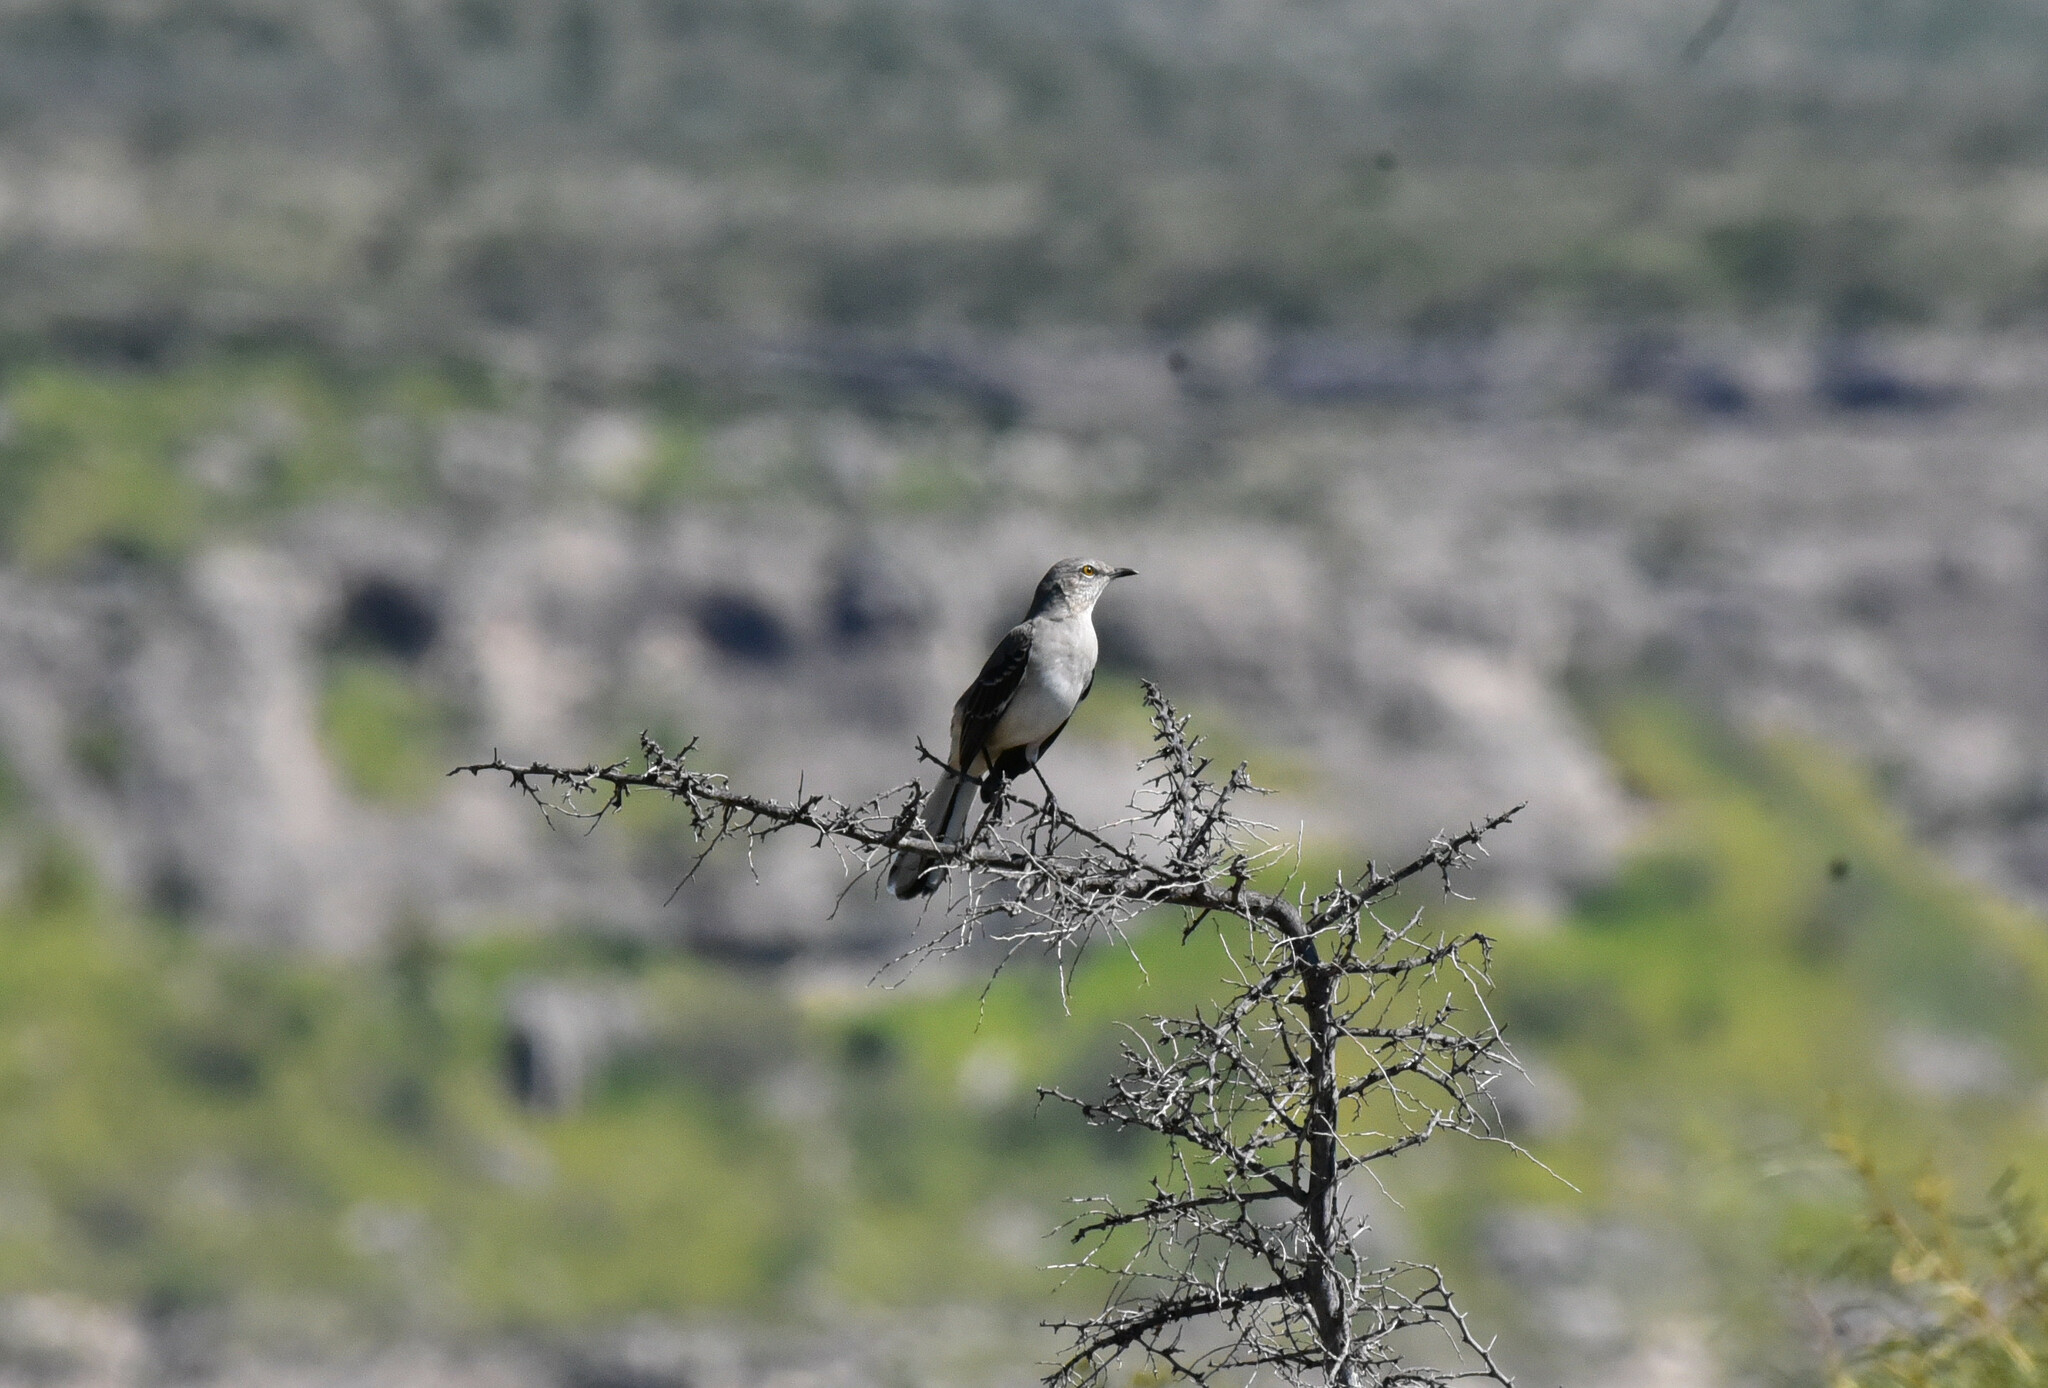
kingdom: Animalia
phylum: Chordata
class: Aves
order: Passeriformes
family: Mimidae
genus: Mimus
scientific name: Mimus polyglottos
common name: Northern mockingbird
